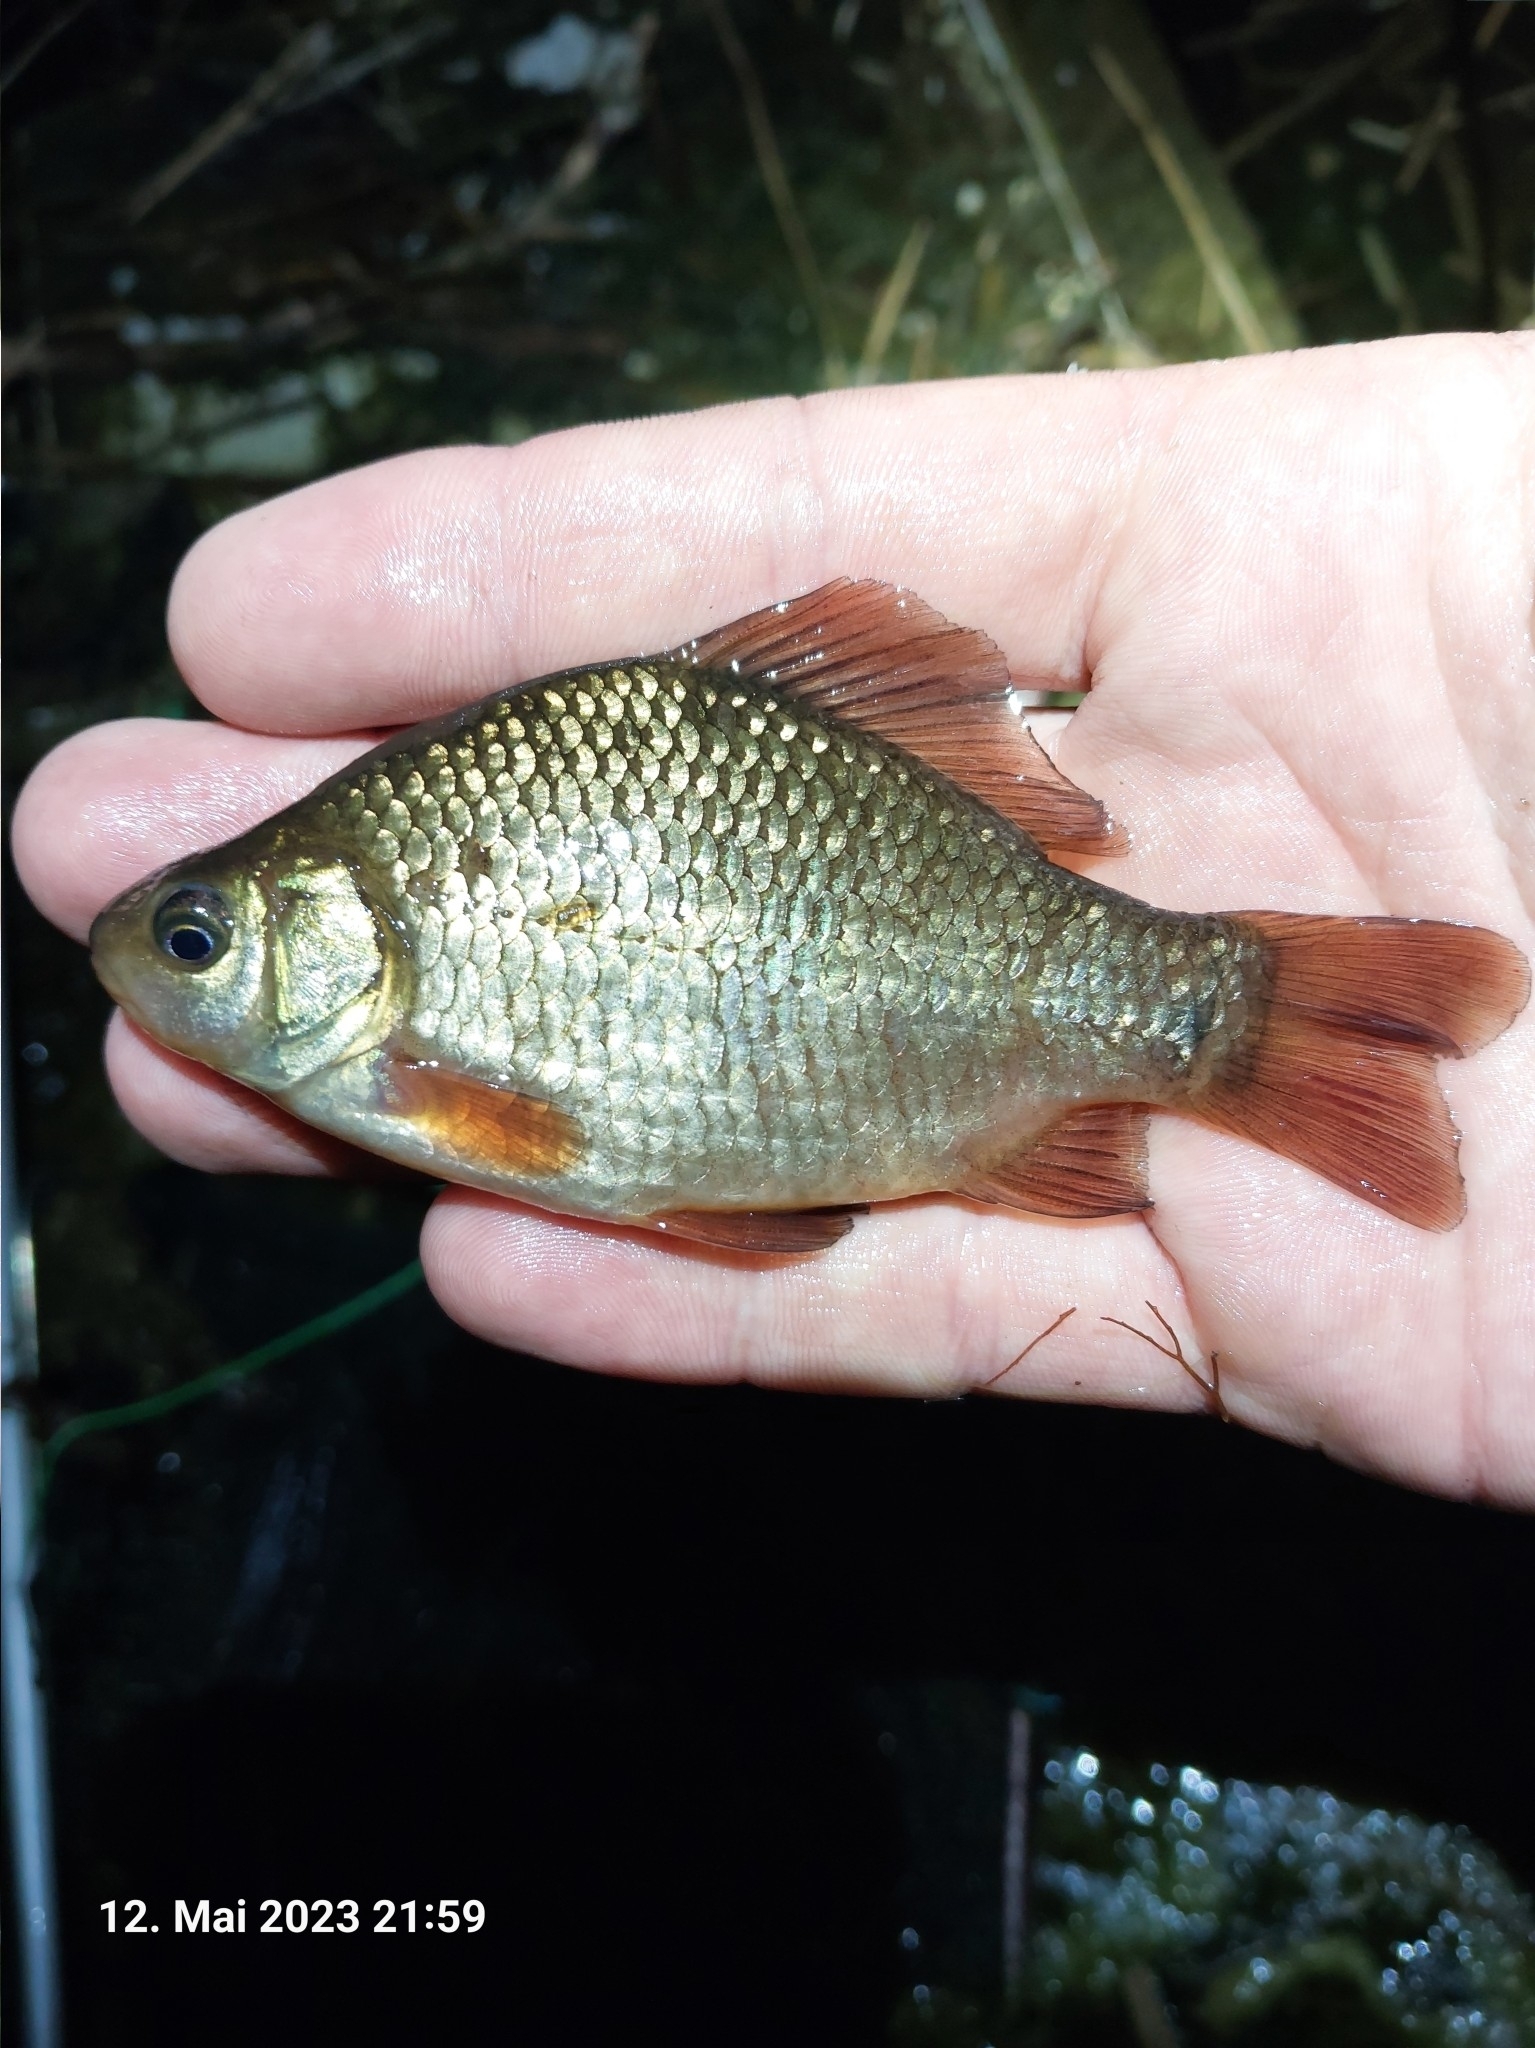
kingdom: Animalia
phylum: Chordata
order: Cypriniformes
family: Cyprinidae
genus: Carassius
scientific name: Carassius carassius
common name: Crucian carp
